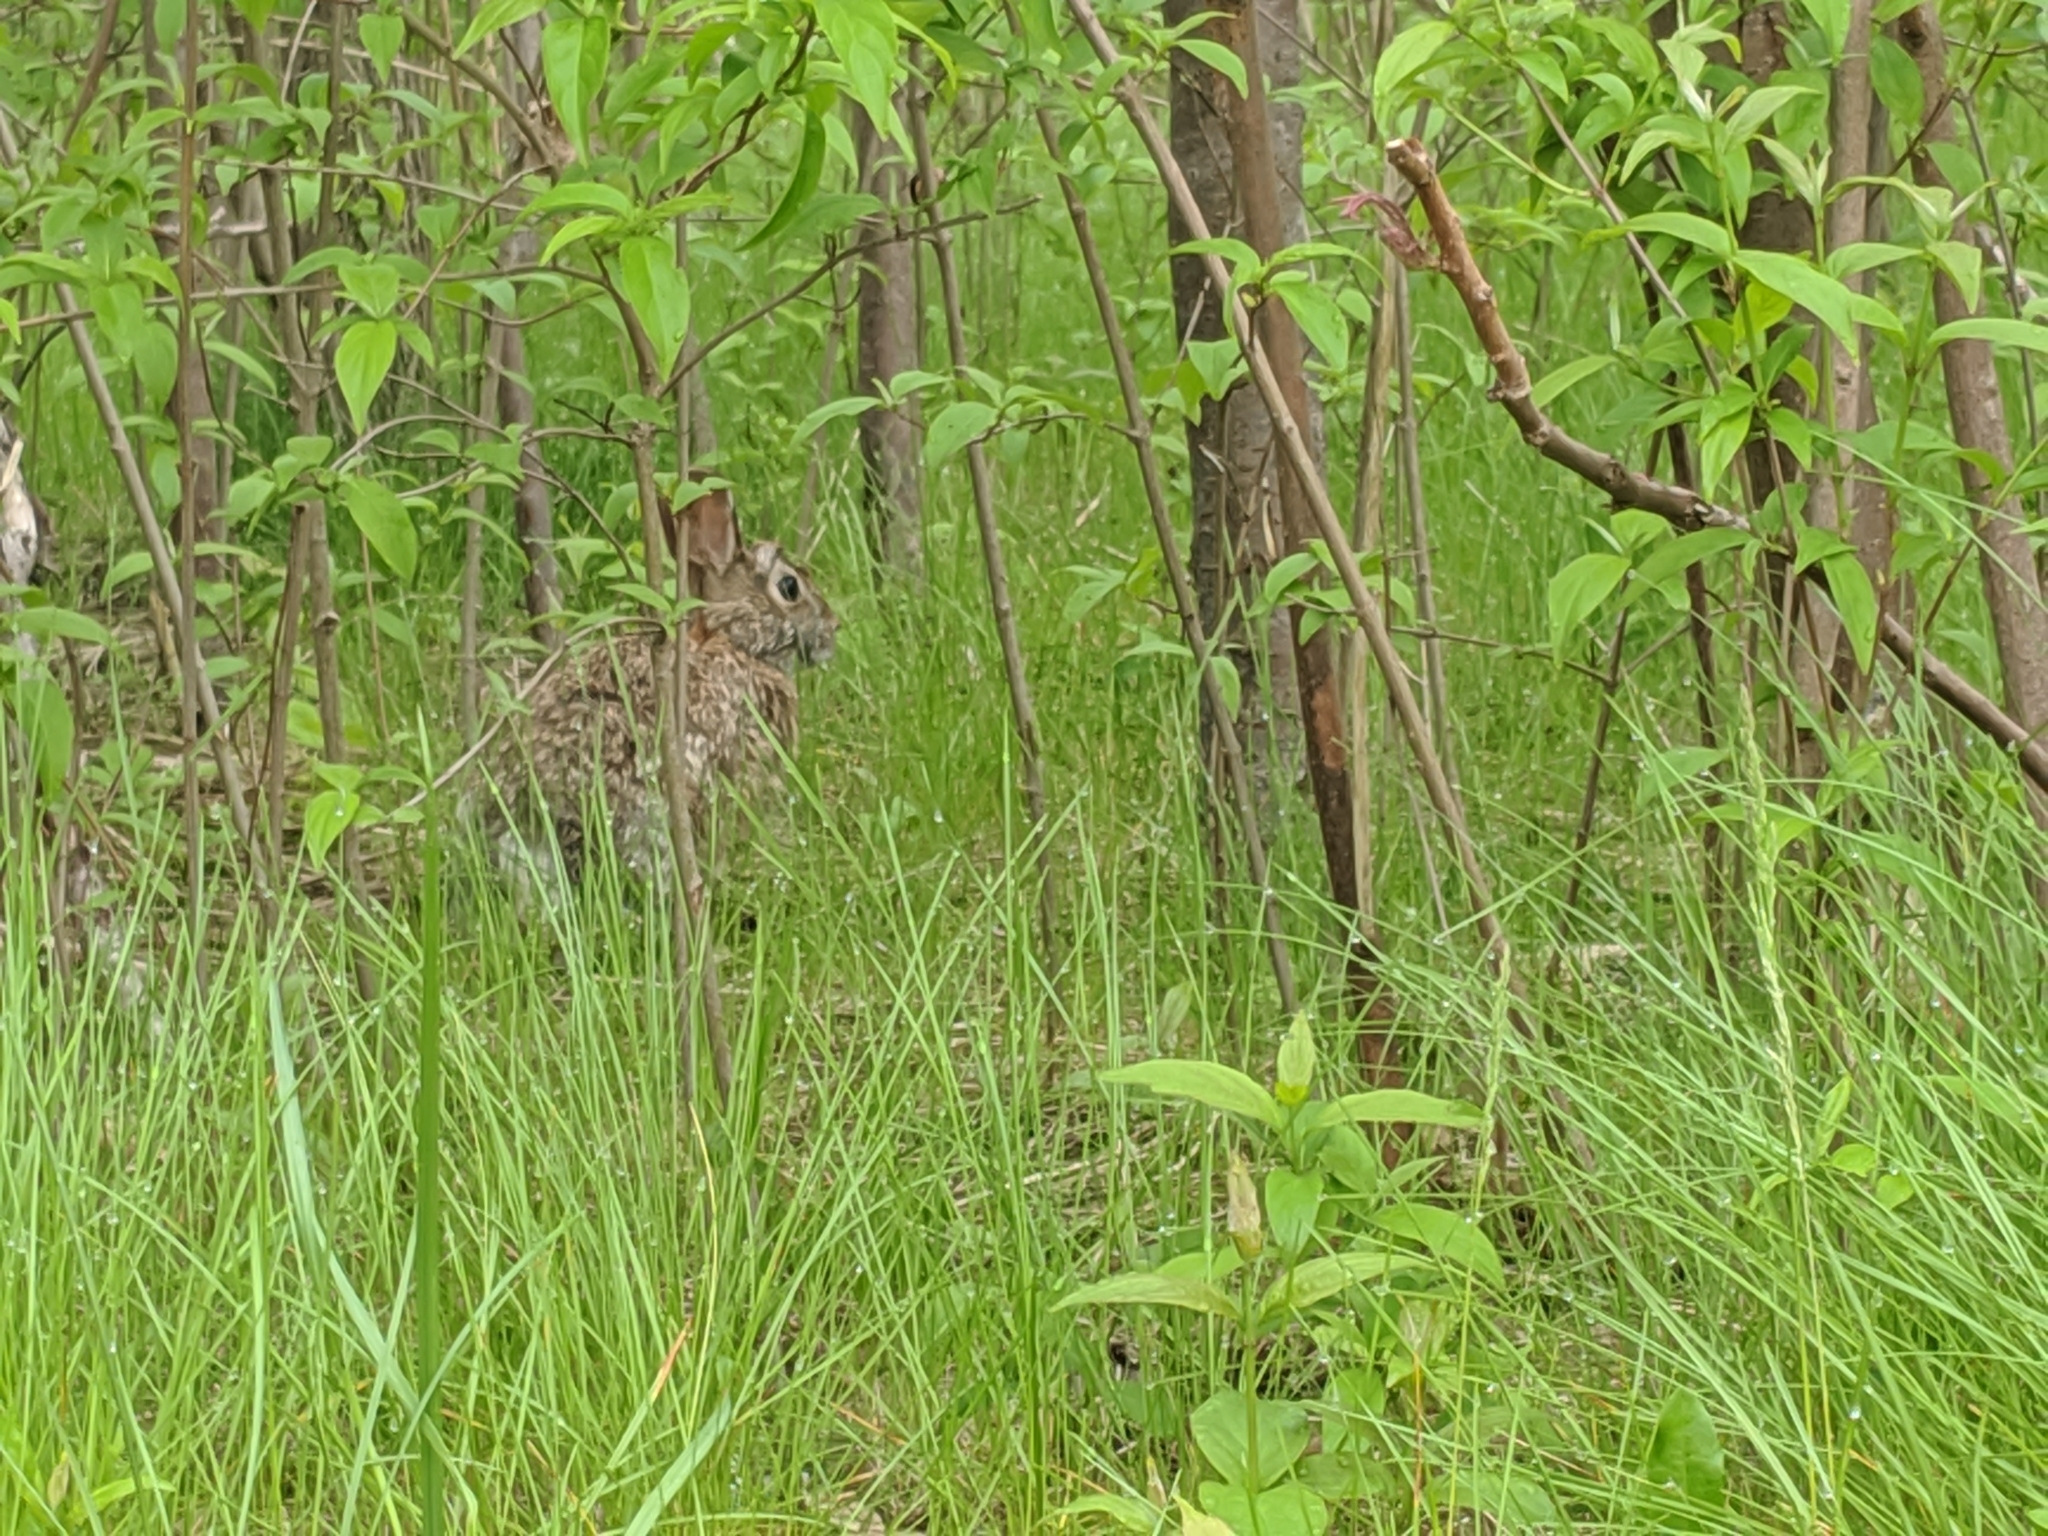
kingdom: Animalia
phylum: Chordata
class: Mammalia
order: Lagomorpha
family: Leporidae
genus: Sylvilagus
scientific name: Sylvilagus floridanus
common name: Eastern cottontail
